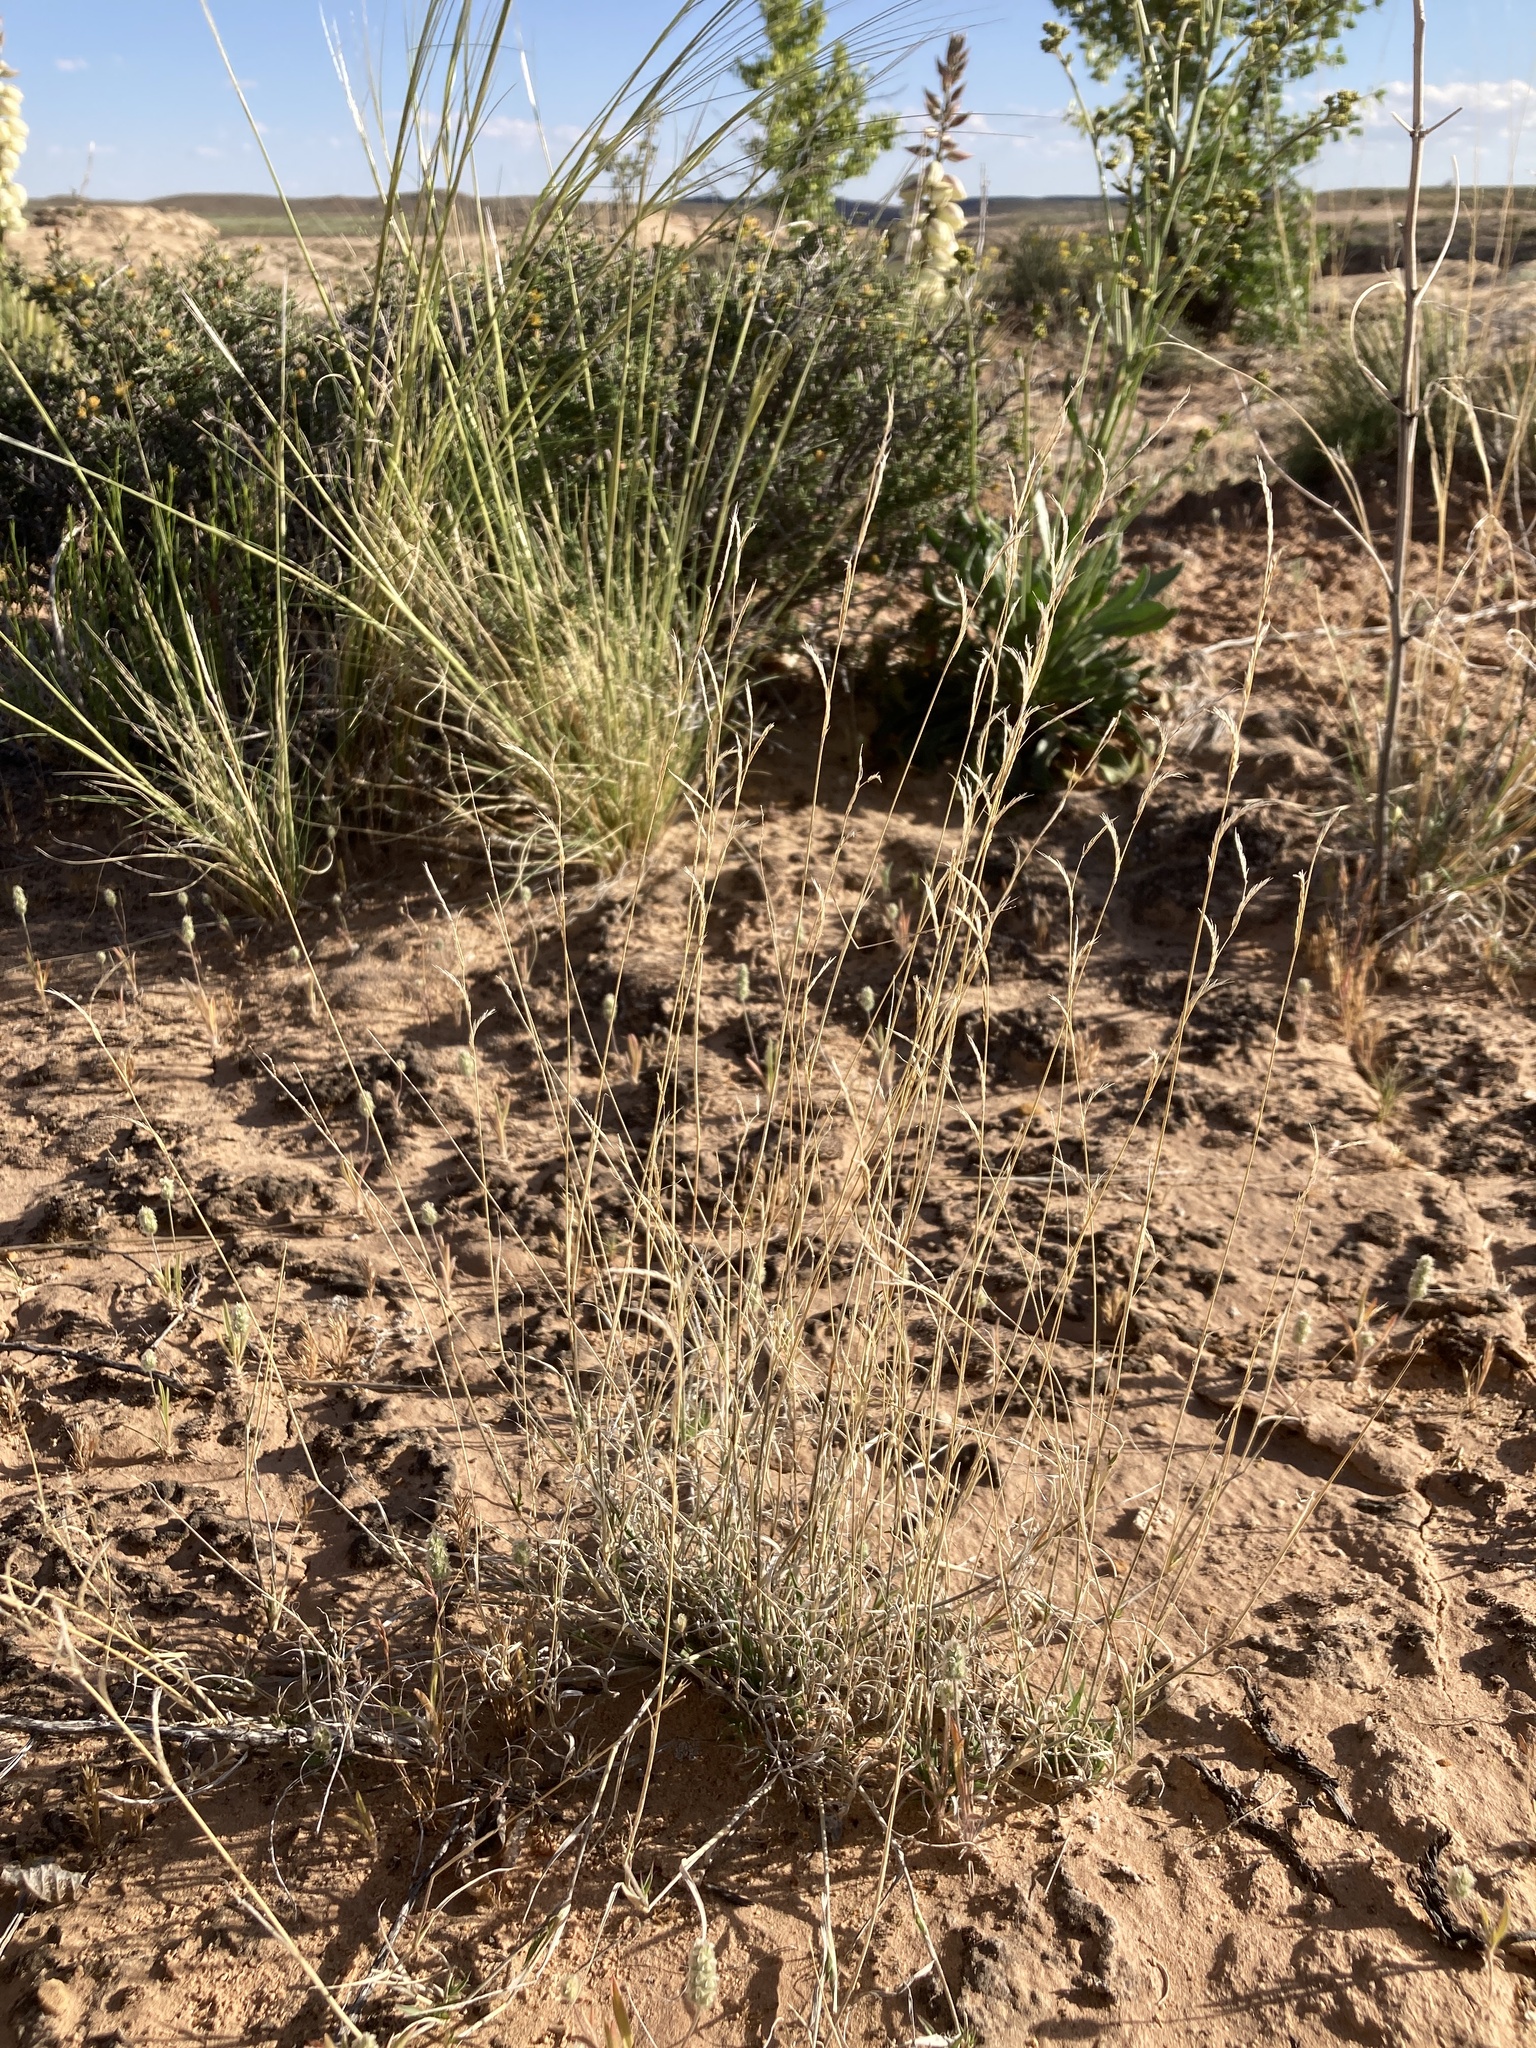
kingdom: Plantae
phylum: Tracheophyta
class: Liliopsida
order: Poales
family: Poaceae
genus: Bouteloua
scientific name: Bouteloua eriopoda
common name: Woolly foot grama
